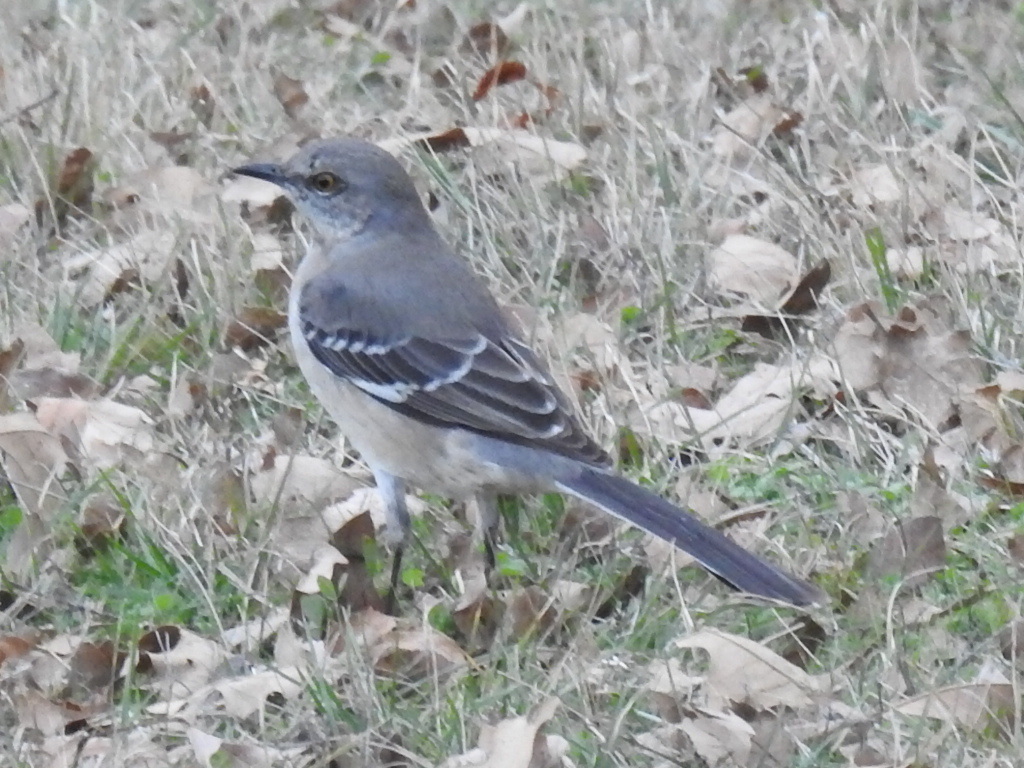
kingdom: Animalia
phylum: Chordata
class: Aves
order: Passeriformes
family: Mimidae
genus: Mimus
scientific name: Mimus polyglottos
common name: Northern mockingbird
